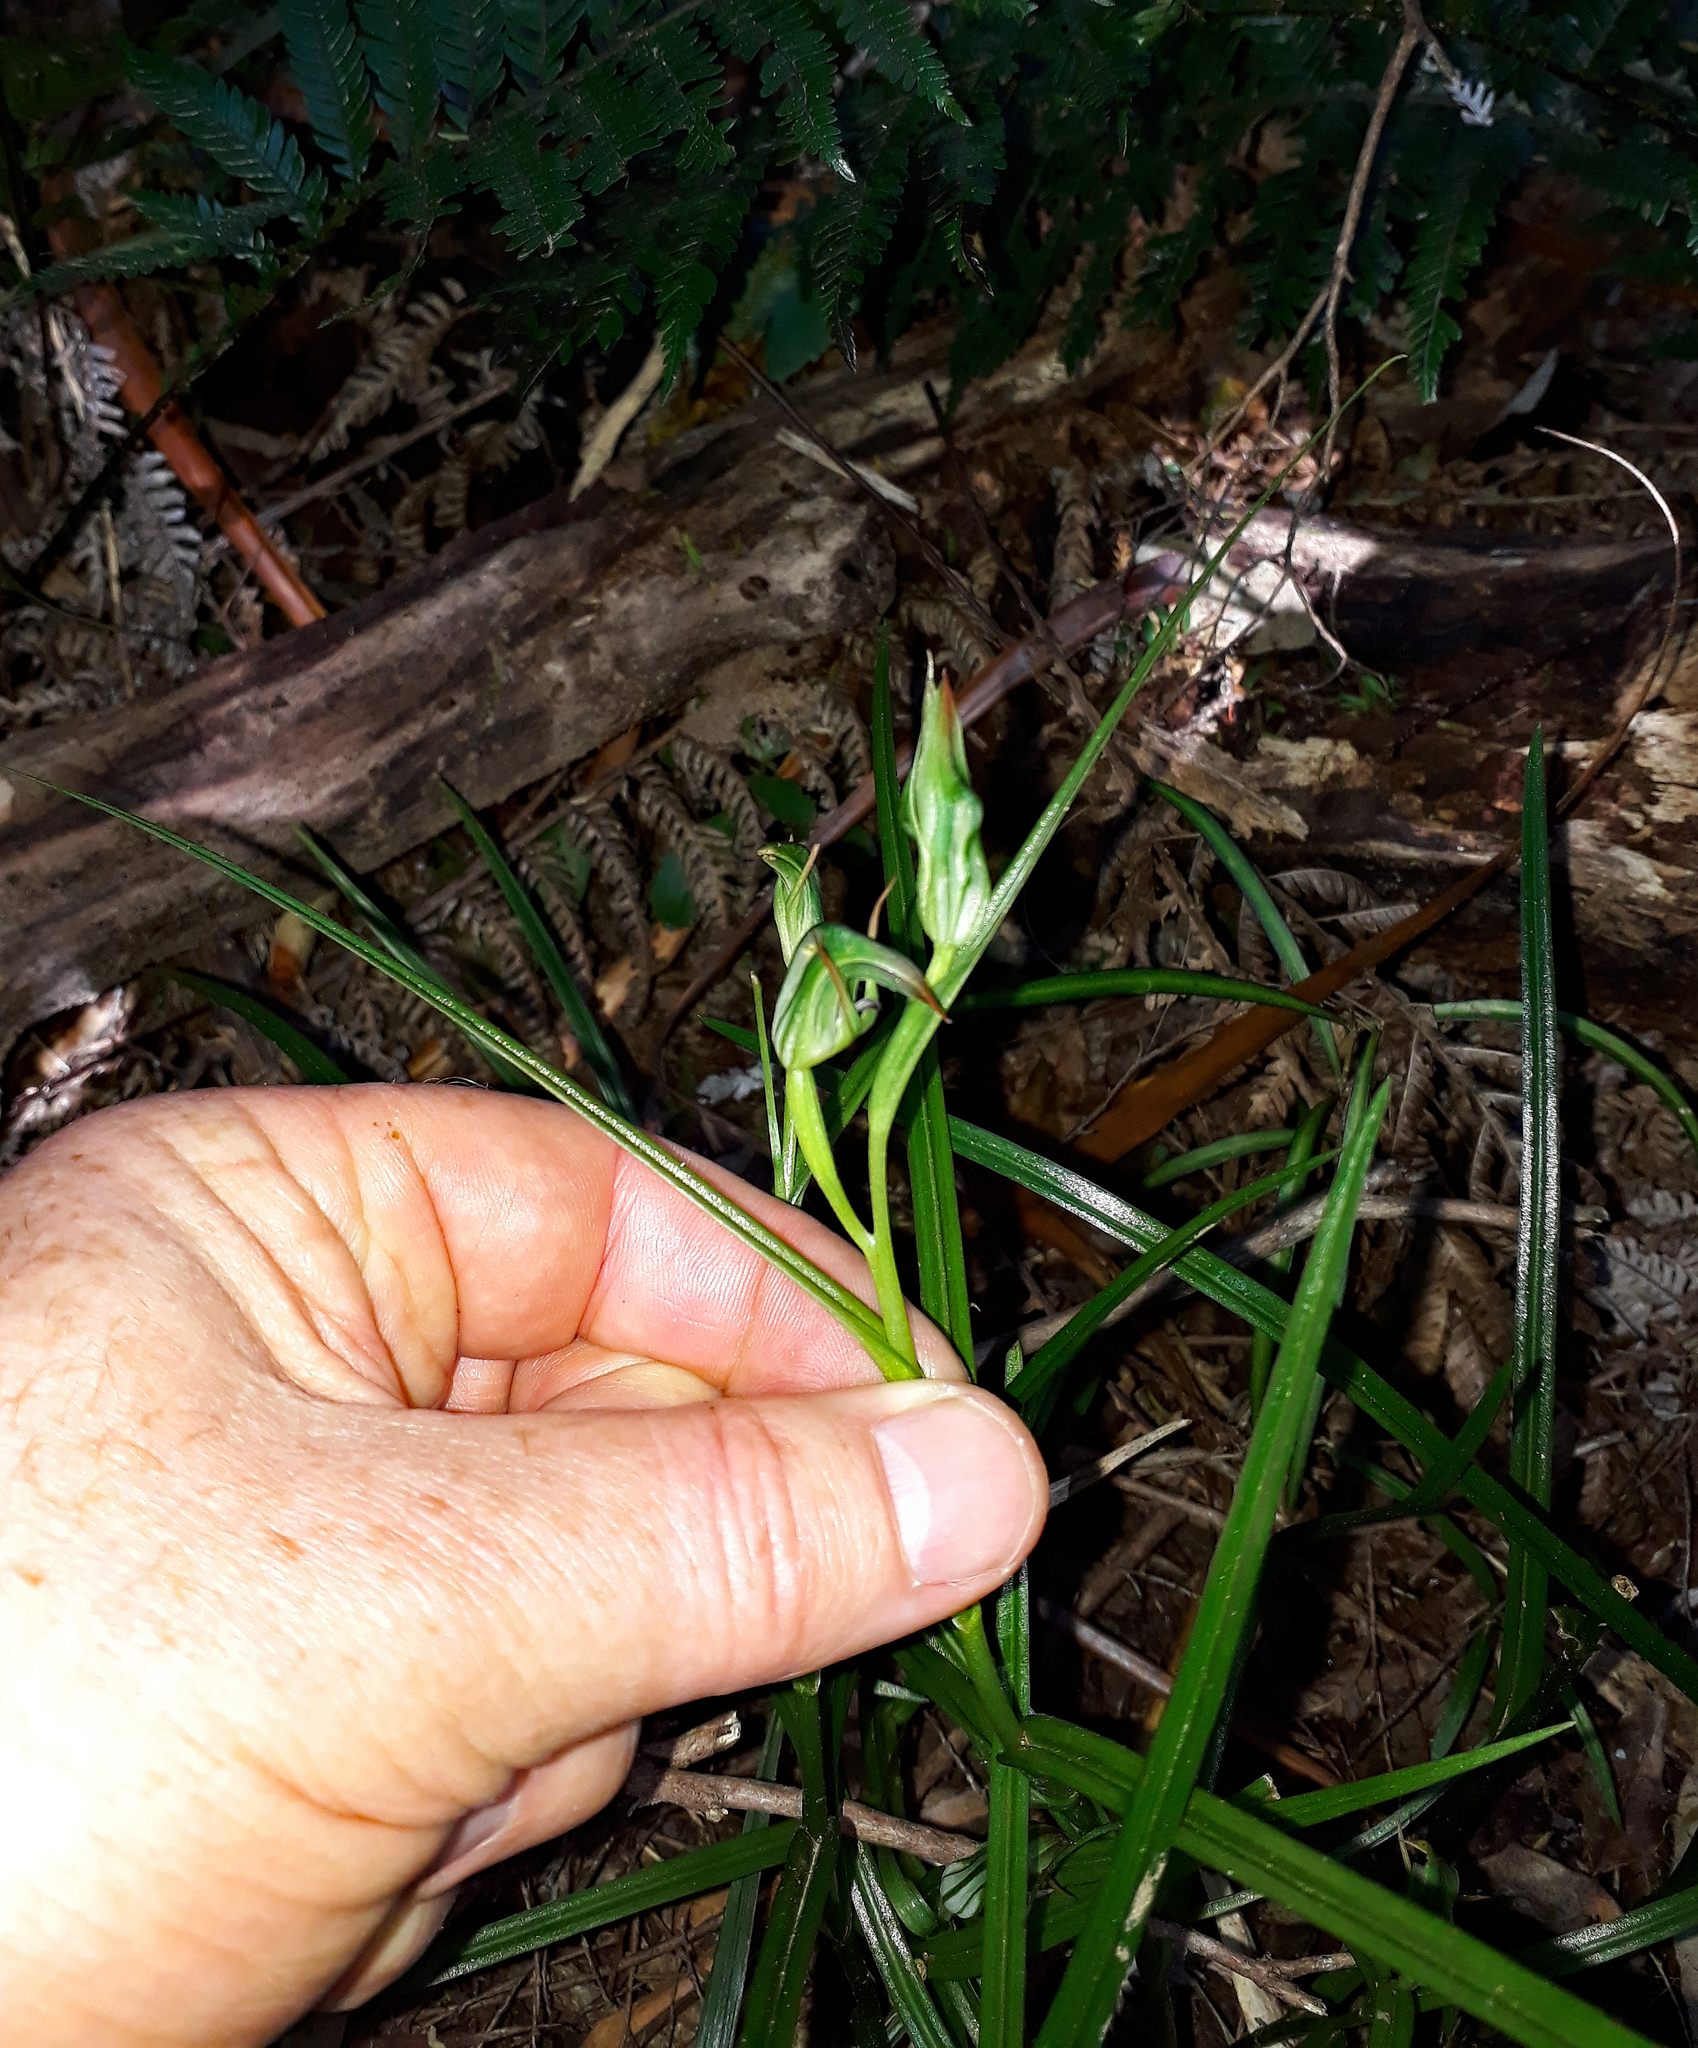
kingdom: Plantae
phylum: Tracheophyta
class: Liliopsida
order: Asparagales
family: Orchidaceae
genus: Pterostylis
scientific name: Pterostylis graminea
